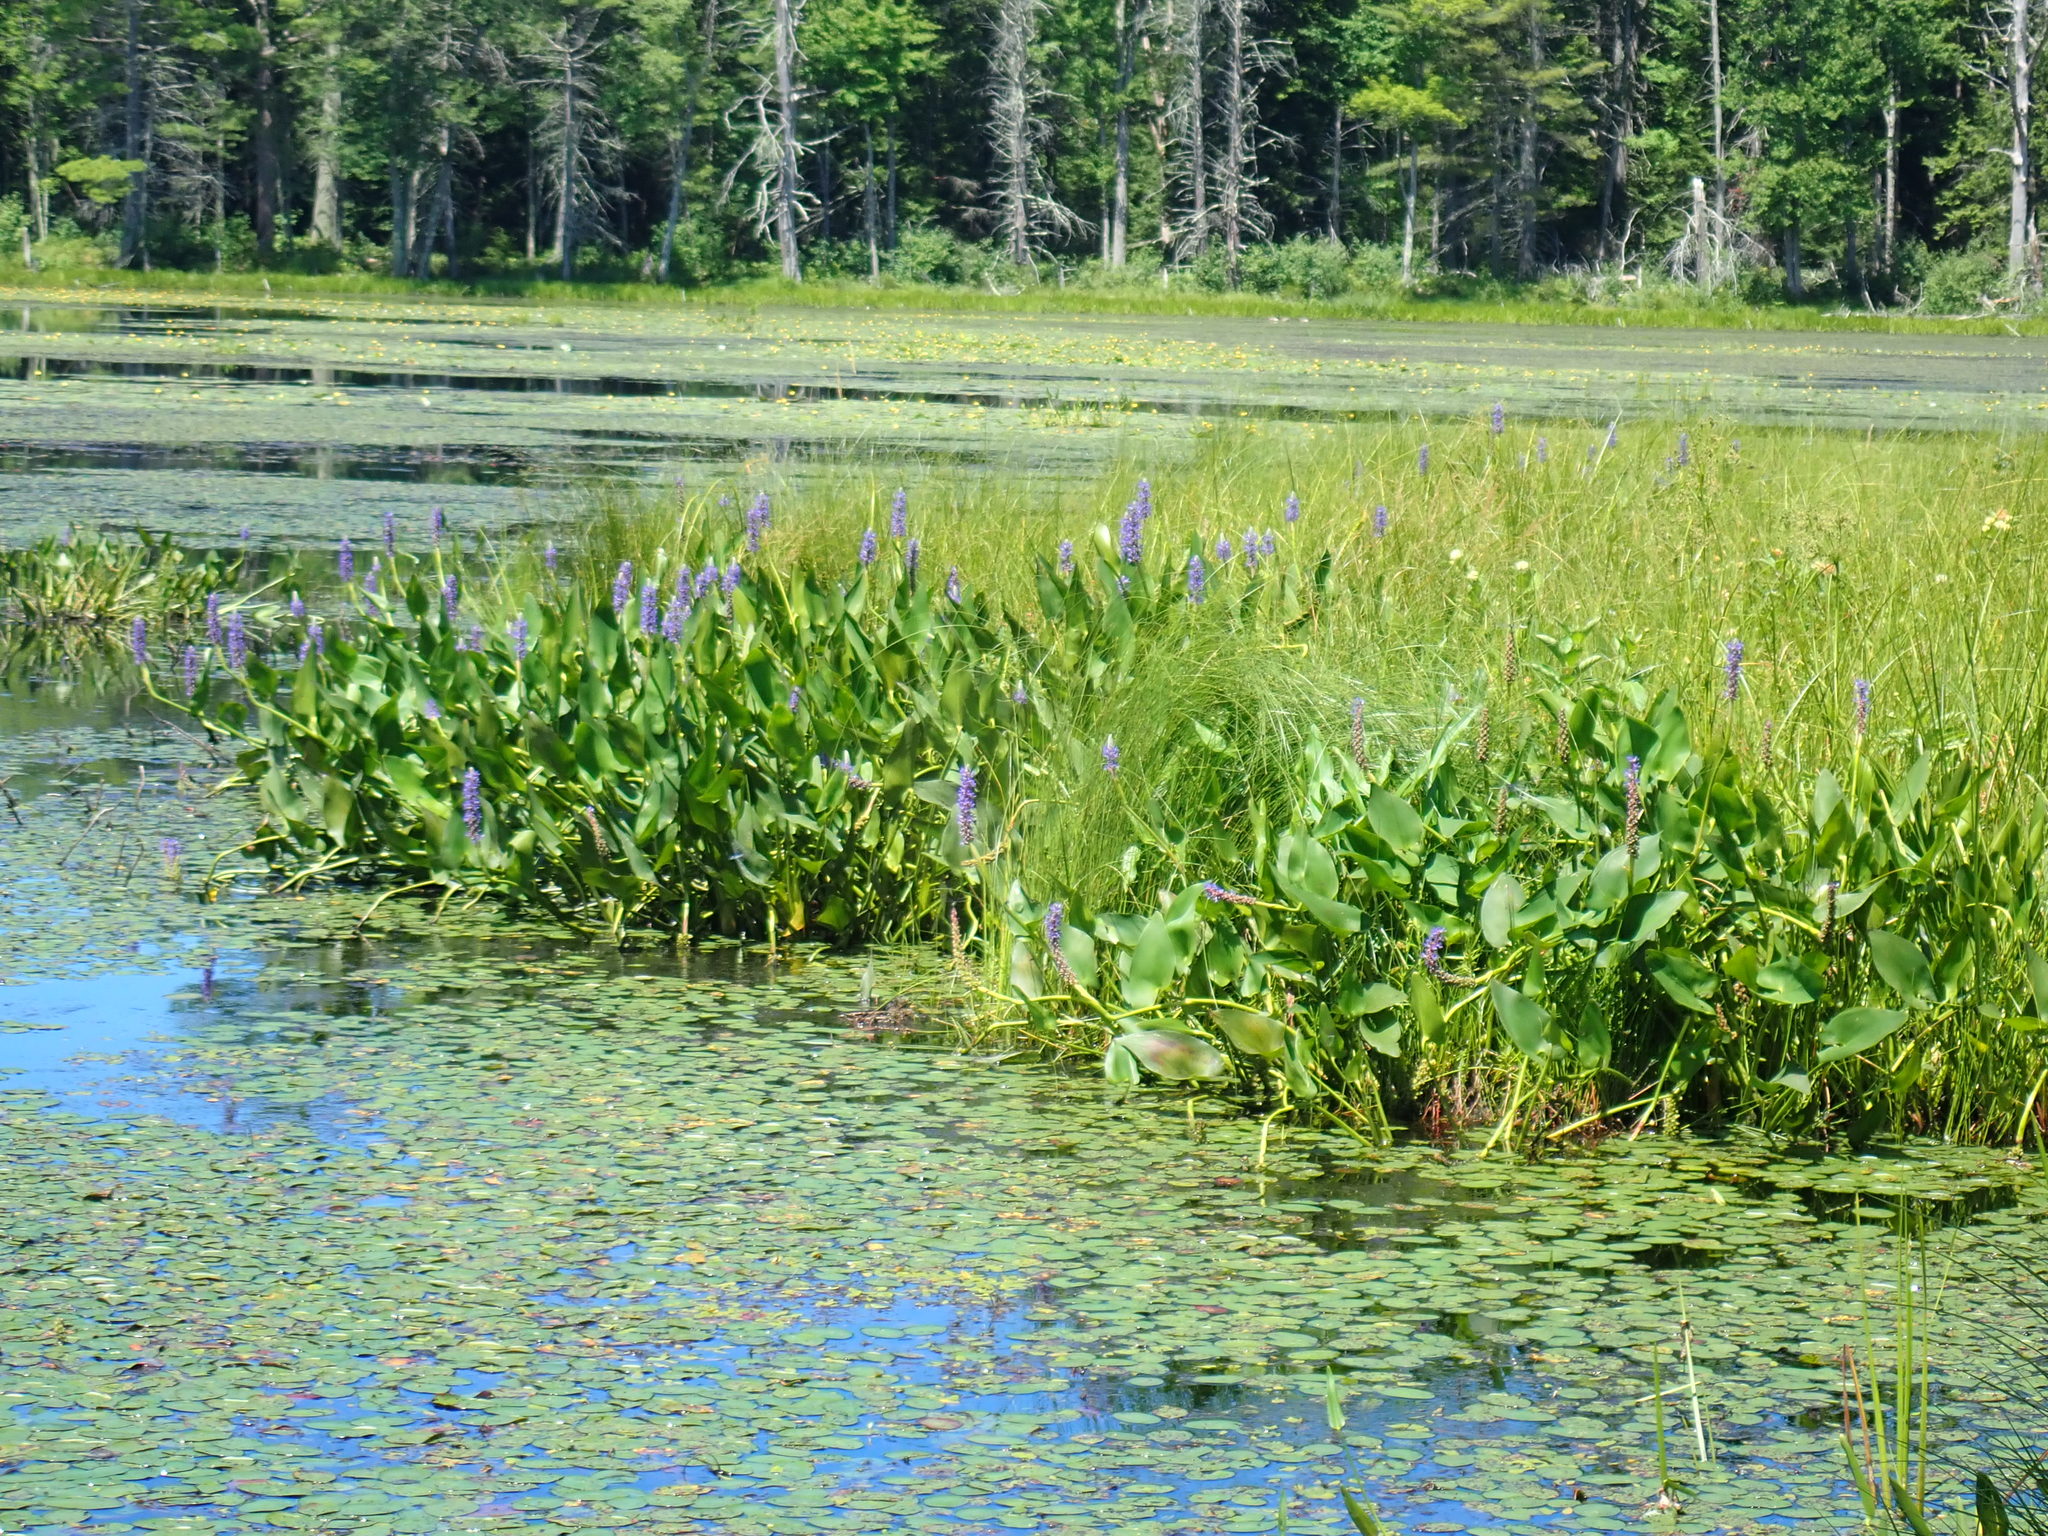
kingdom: Plantae
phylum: Tracheophyta
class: Liliopsida
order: Commelinales
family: Pontederiaceae
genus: Pontederia
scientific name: Pontederia cordata
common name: Pickerelweed
